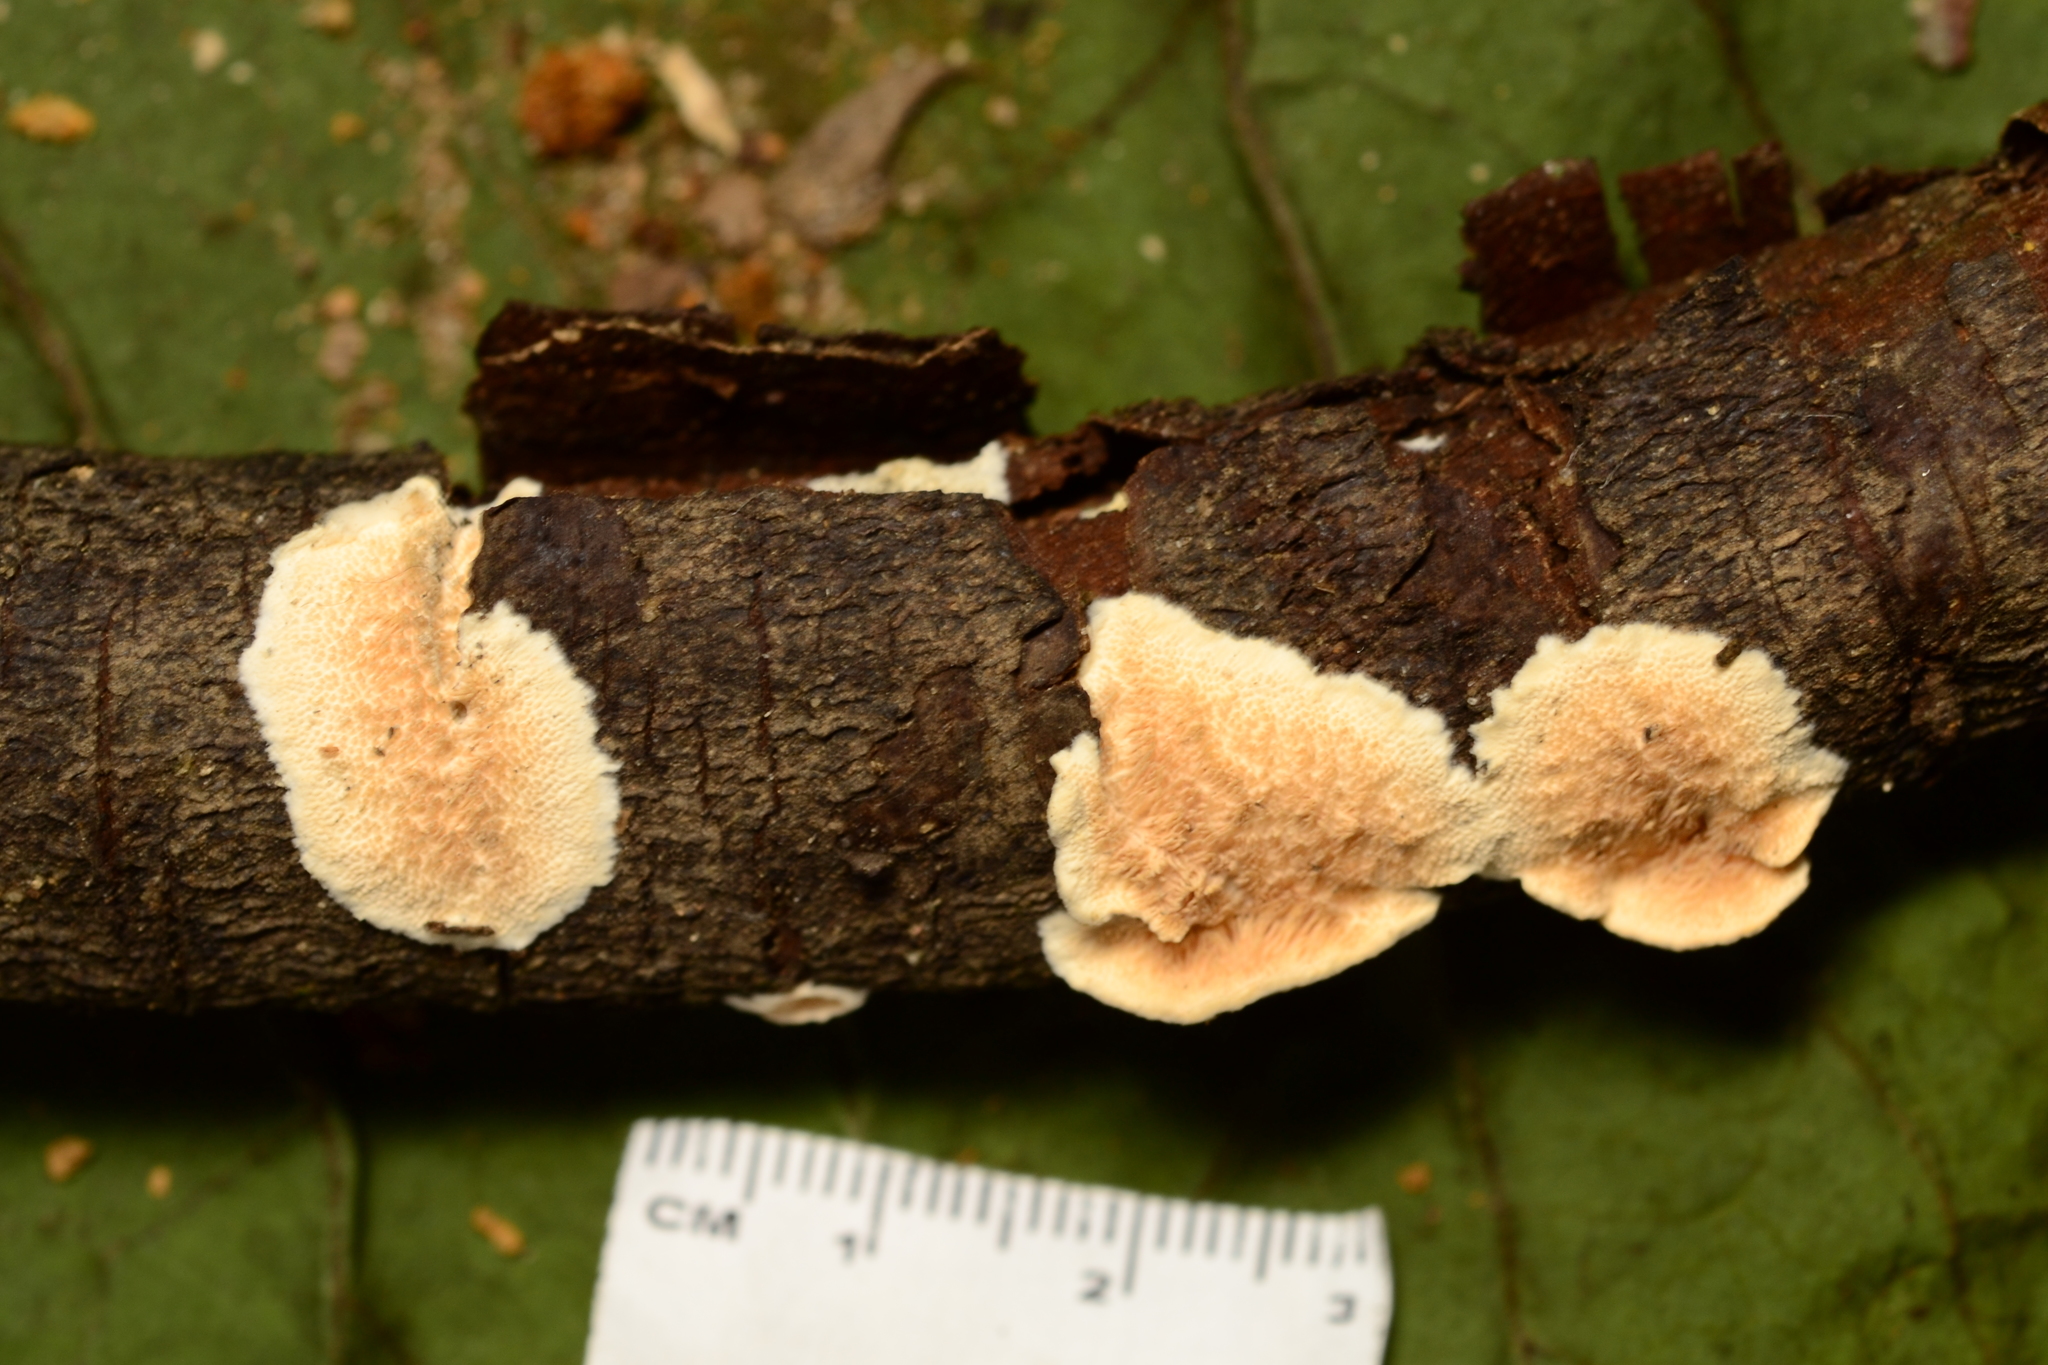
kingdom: Fungi
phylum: Basidiomycota
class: Agaricomycetes
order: Polyporales
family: Steccherinaceae
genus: Steccherinum
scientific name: Steccherinum ochraceum
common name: Ochre spreading tooth
